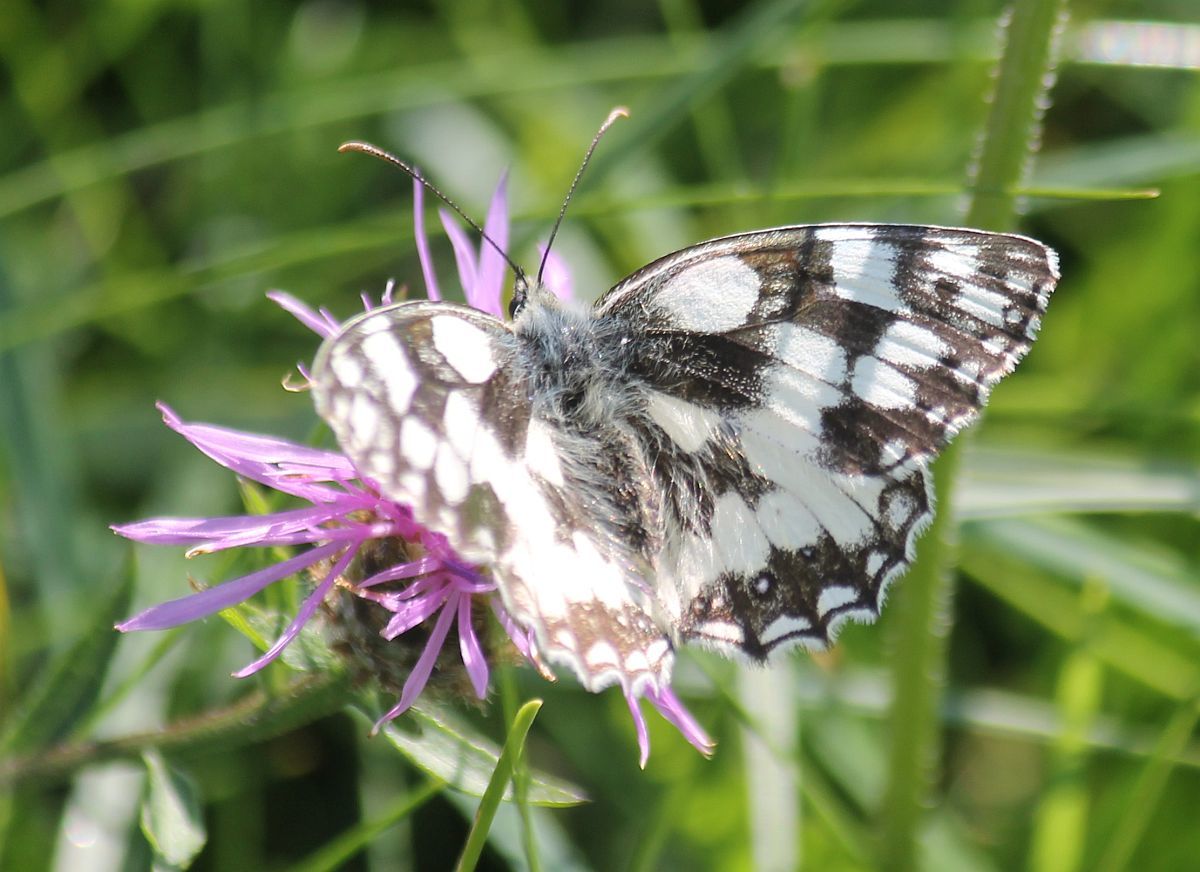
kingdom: Animalia
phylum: Arthropoda
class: Insecta
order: Lepidoptera
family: Nymphalidae
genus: Melanargia
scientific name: Melanargia galathea
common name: Marbled white
